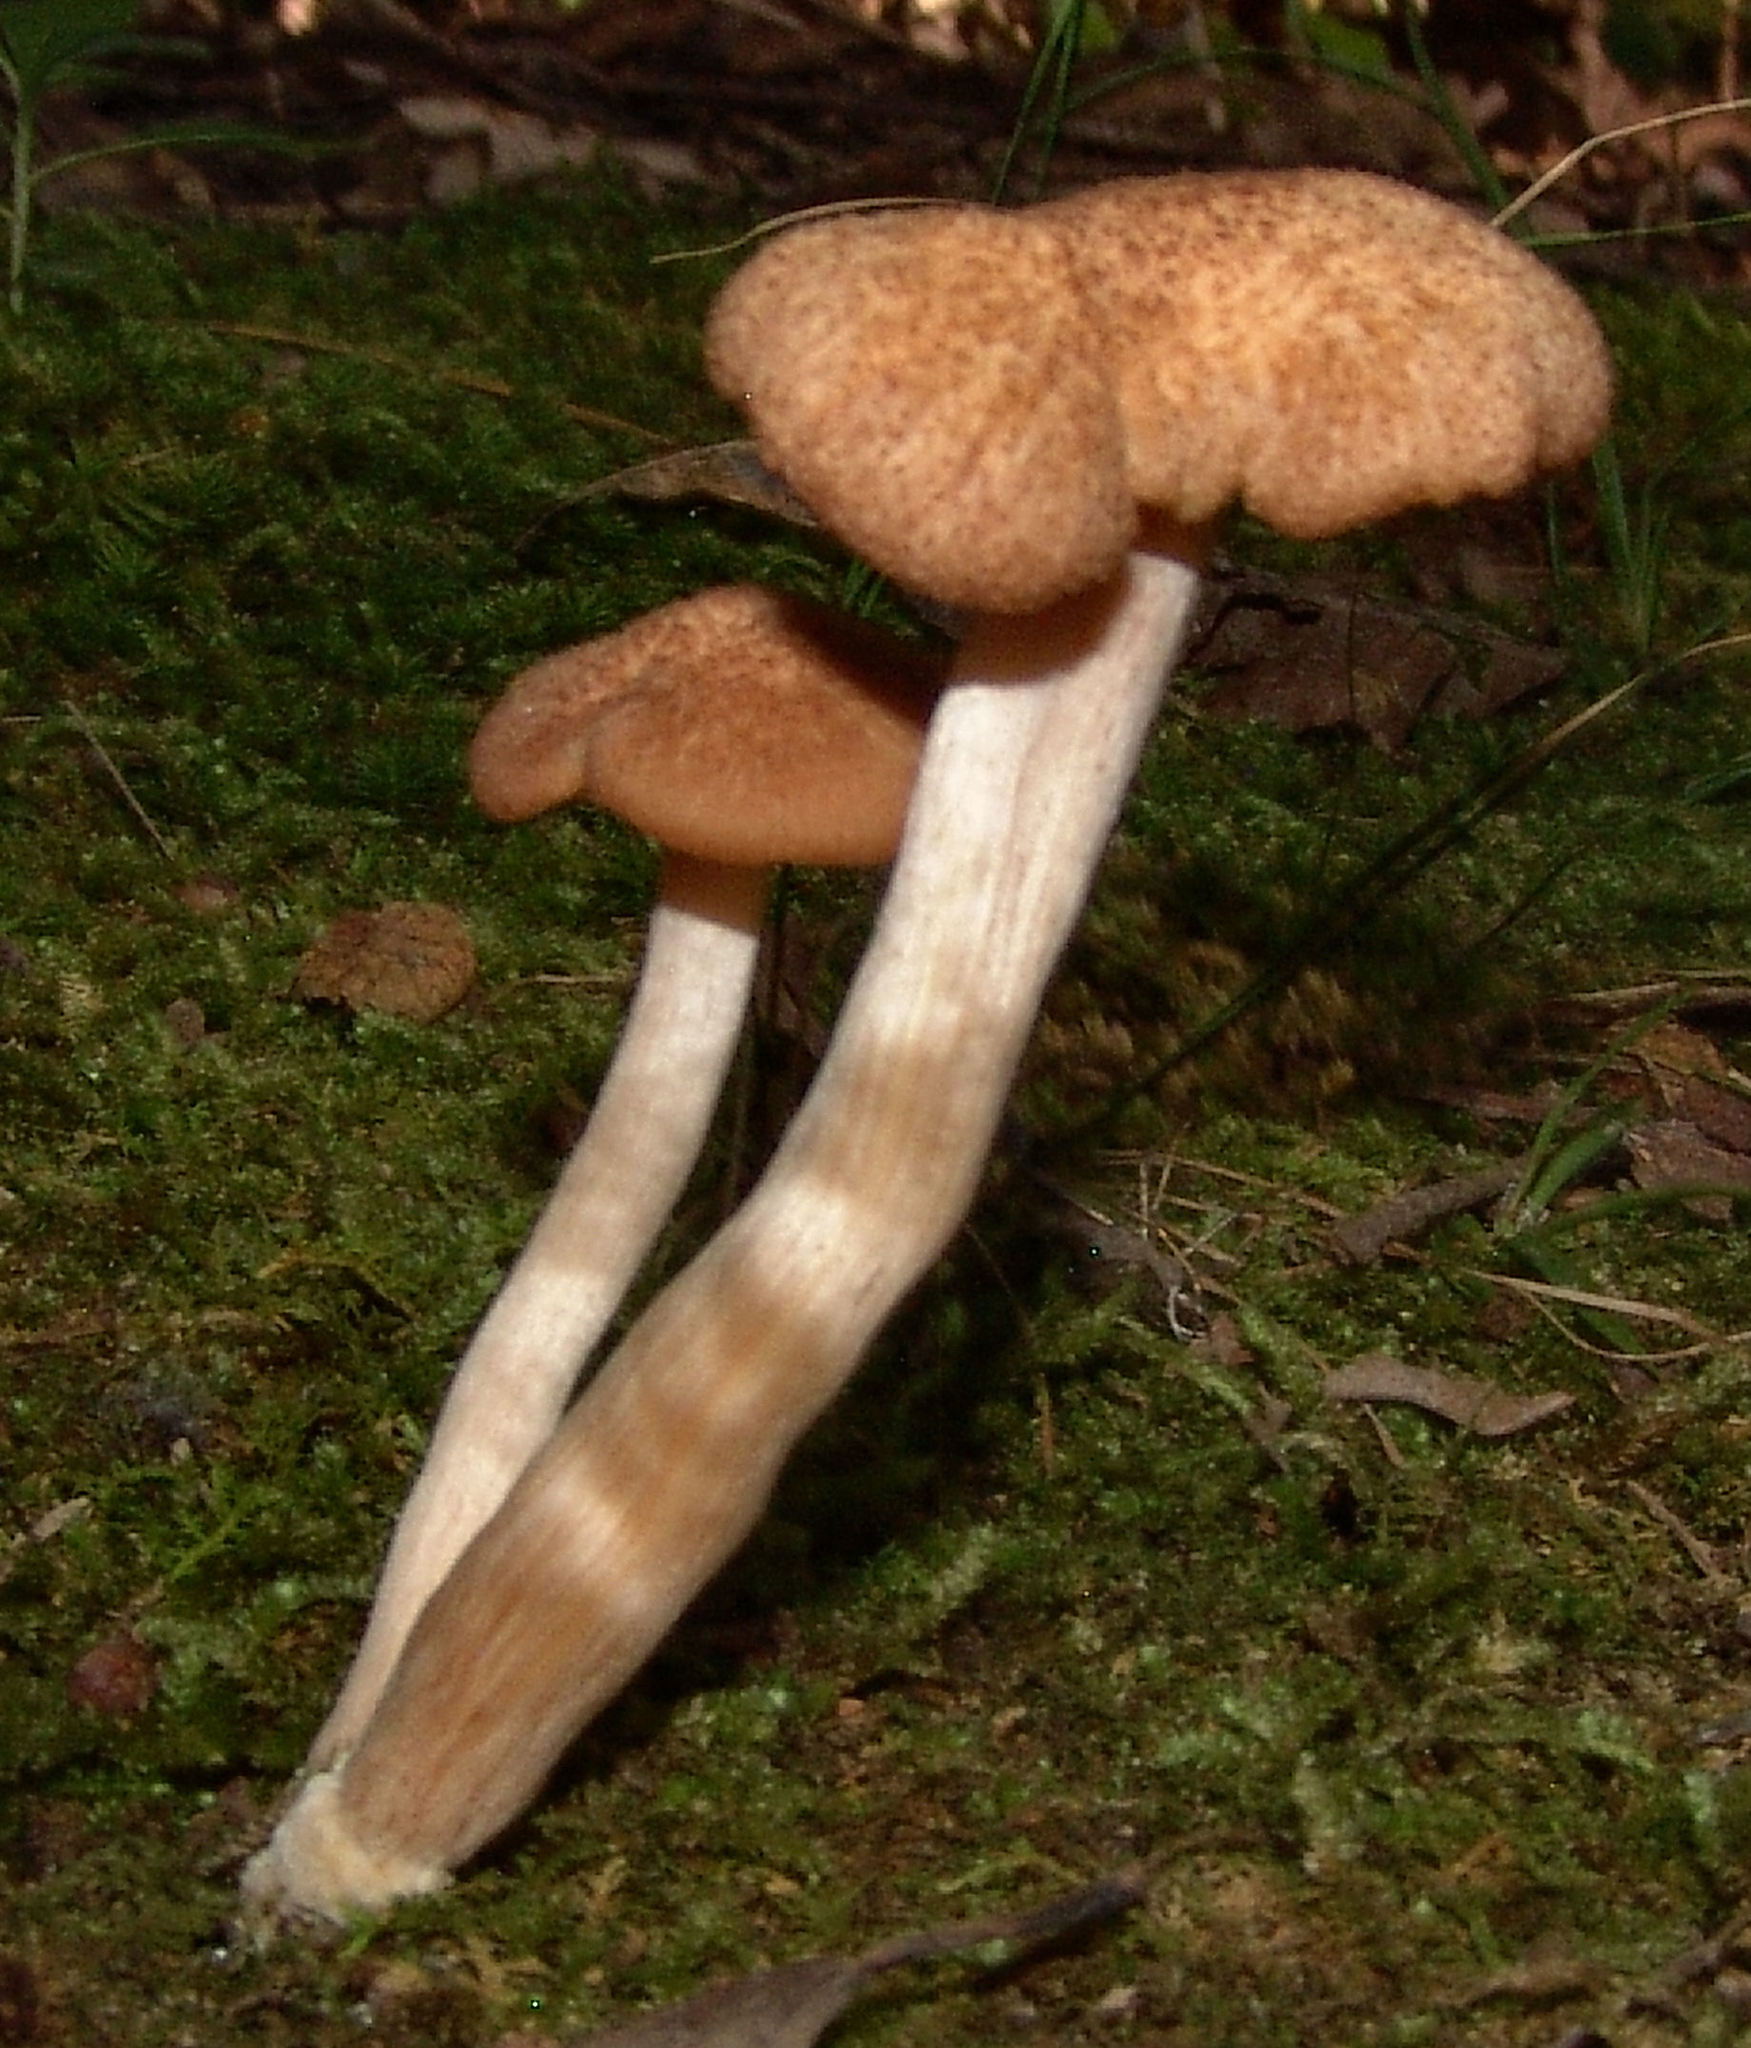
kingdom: Fungi
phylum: Basidiomycota
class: Agaricomycetes
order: Agaricales
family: Physalacriaceae
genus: Desarmillaria
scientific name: Desarmillaria caespitosa
